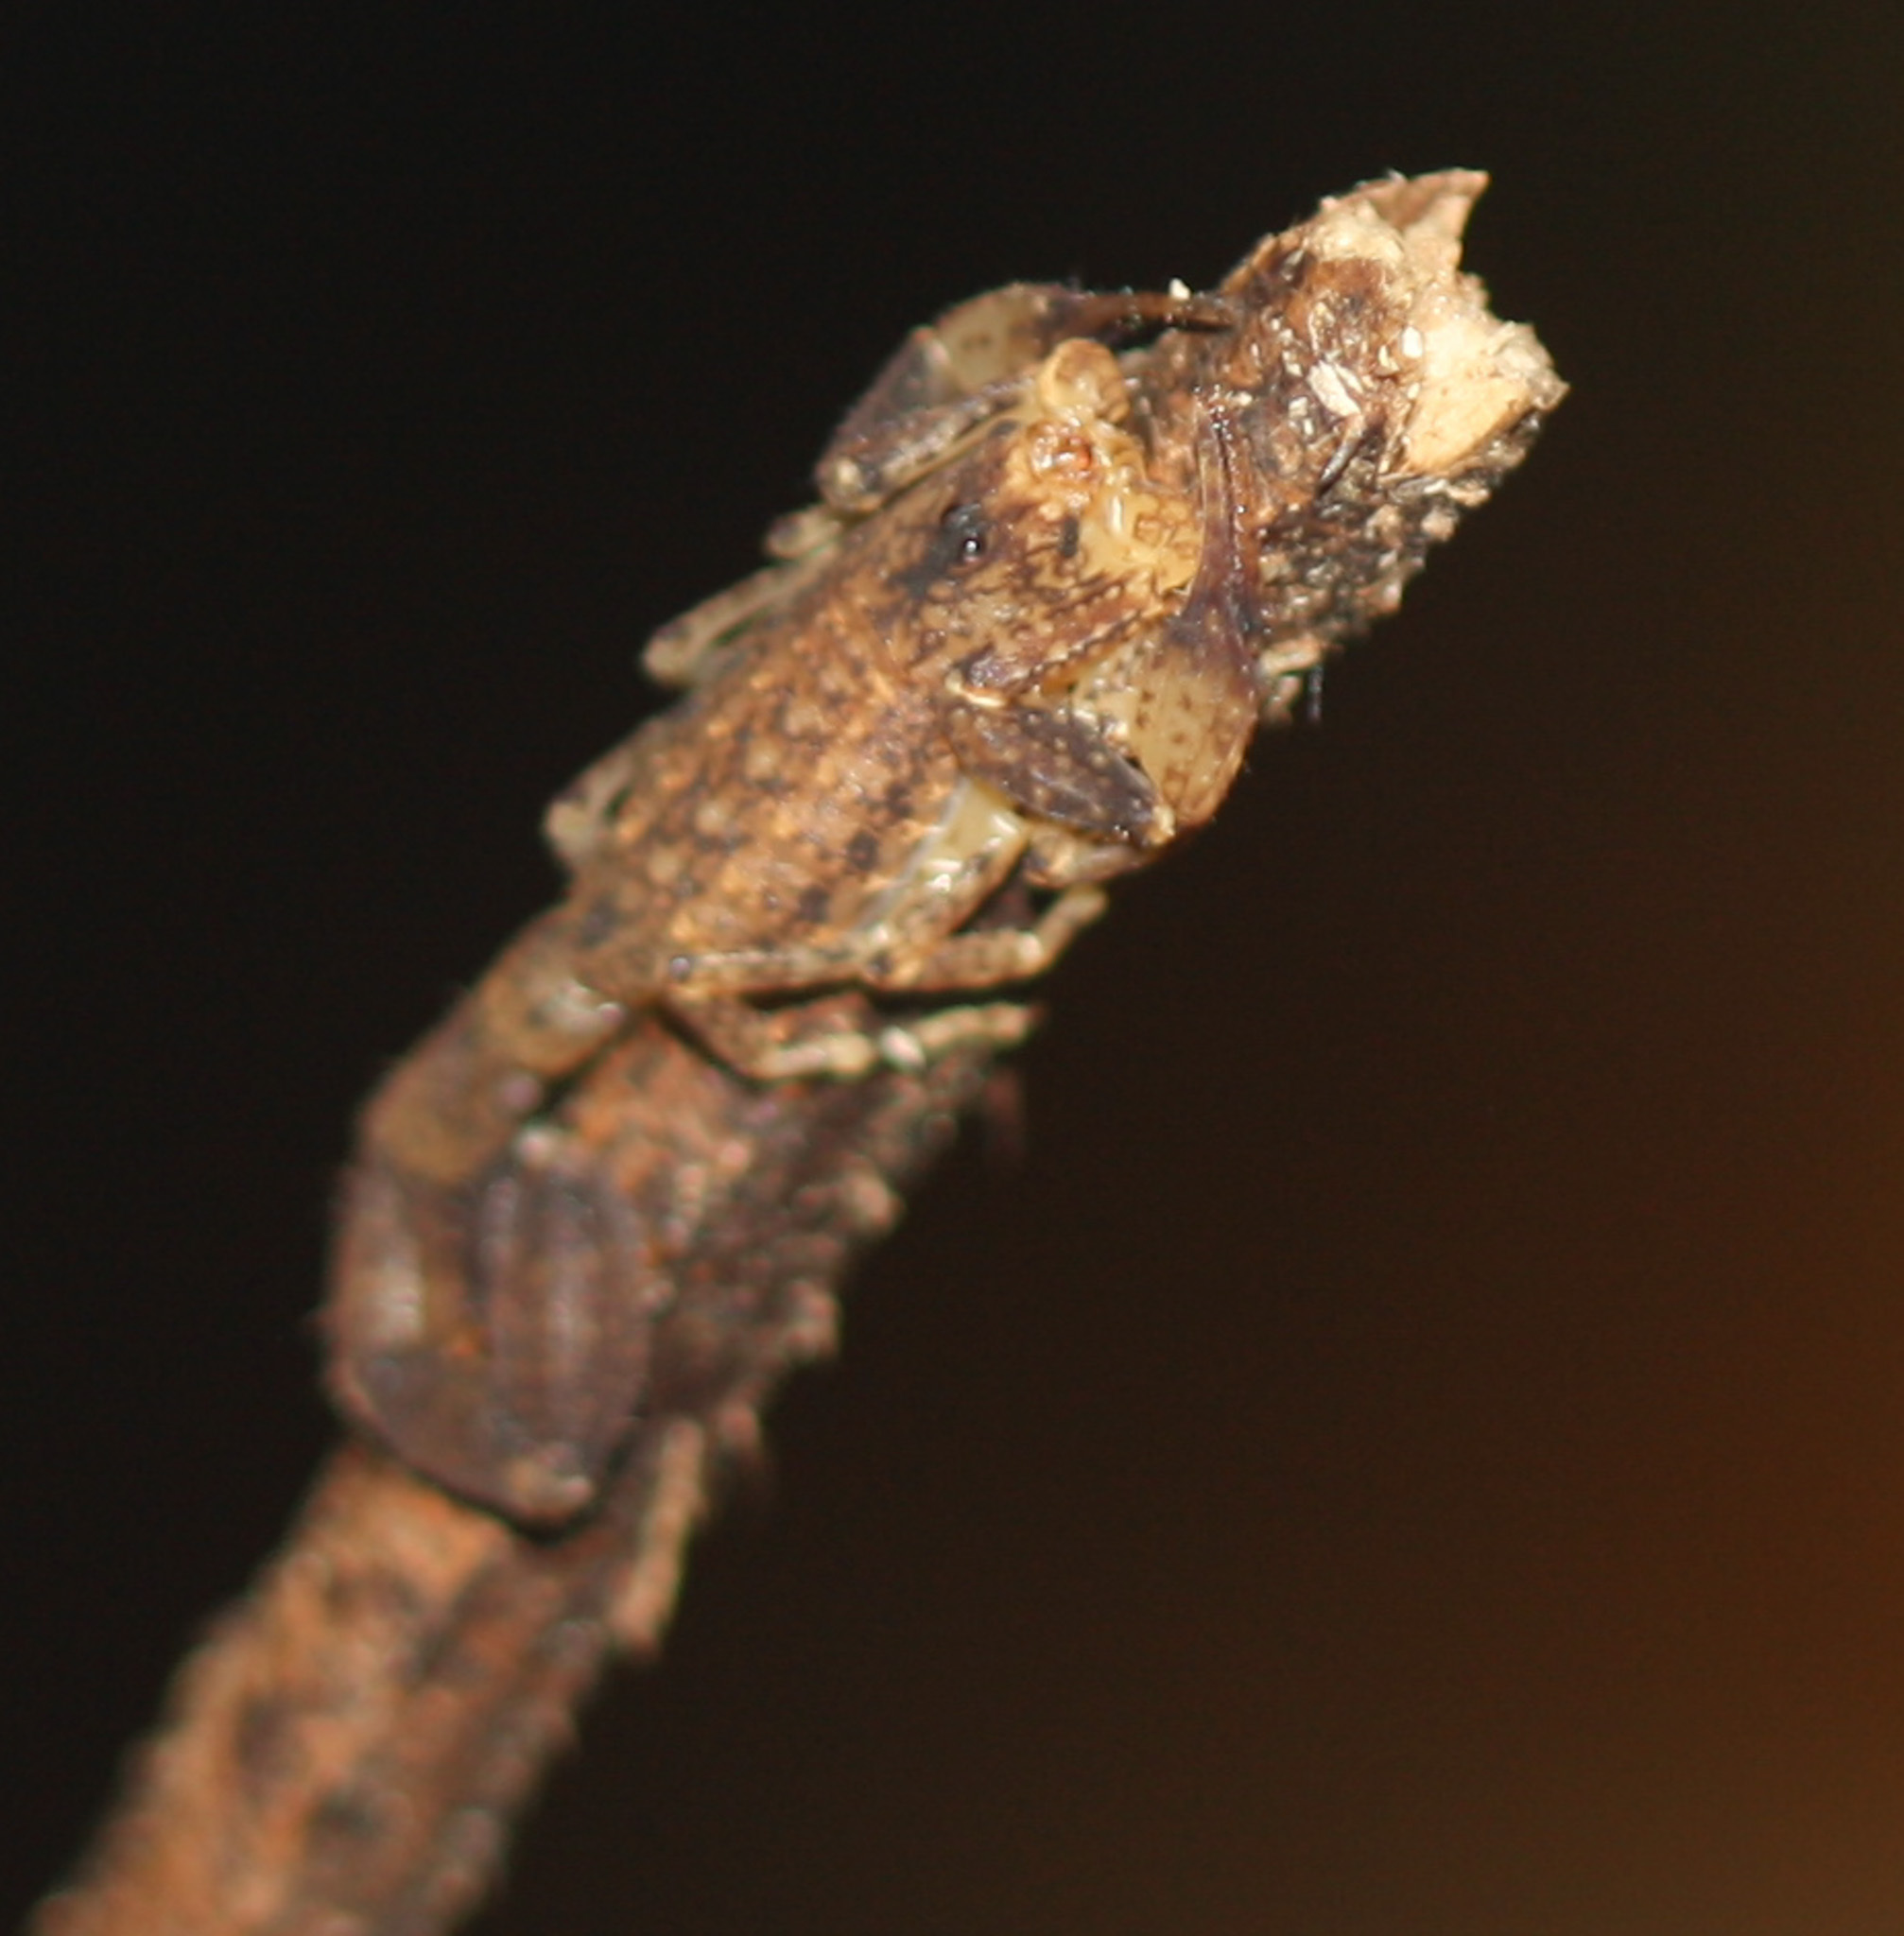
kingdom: Animalia
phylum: Arthropoda
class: Arachnida
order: Scorpiones
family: Buthidae
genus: Tityus
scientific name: Tityus ocelote
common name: Scorpions
